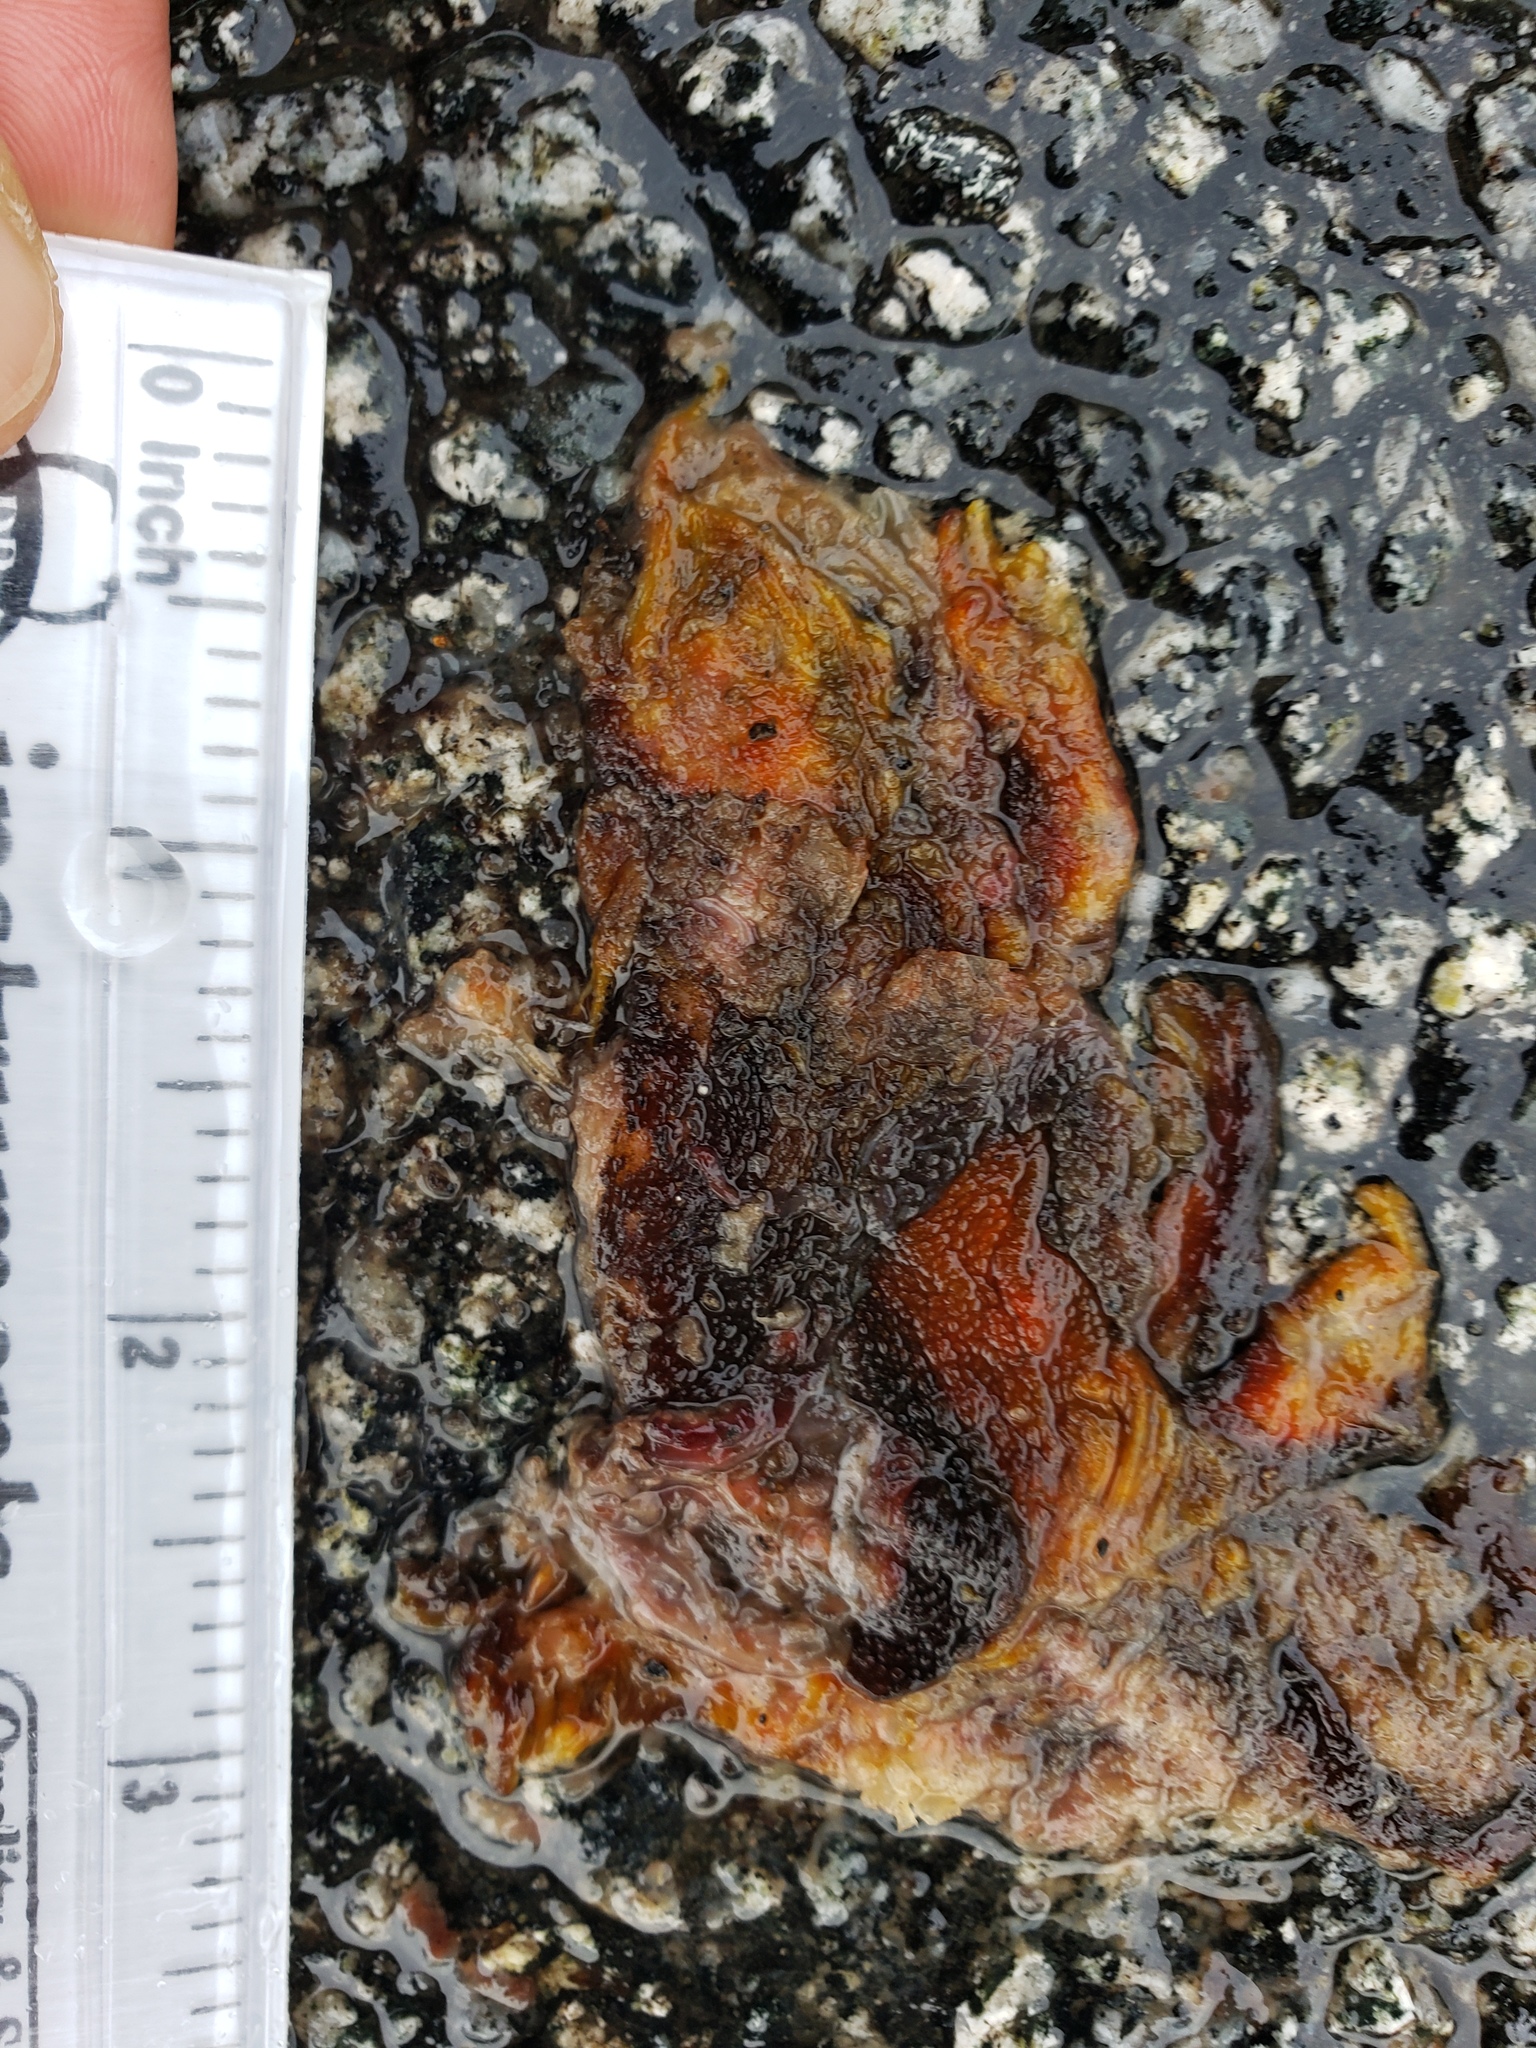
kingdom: Animalia
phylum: Chordata
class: Amphibia
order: Caudata
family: Salamandridae
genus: Taricha
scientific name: Taricha
